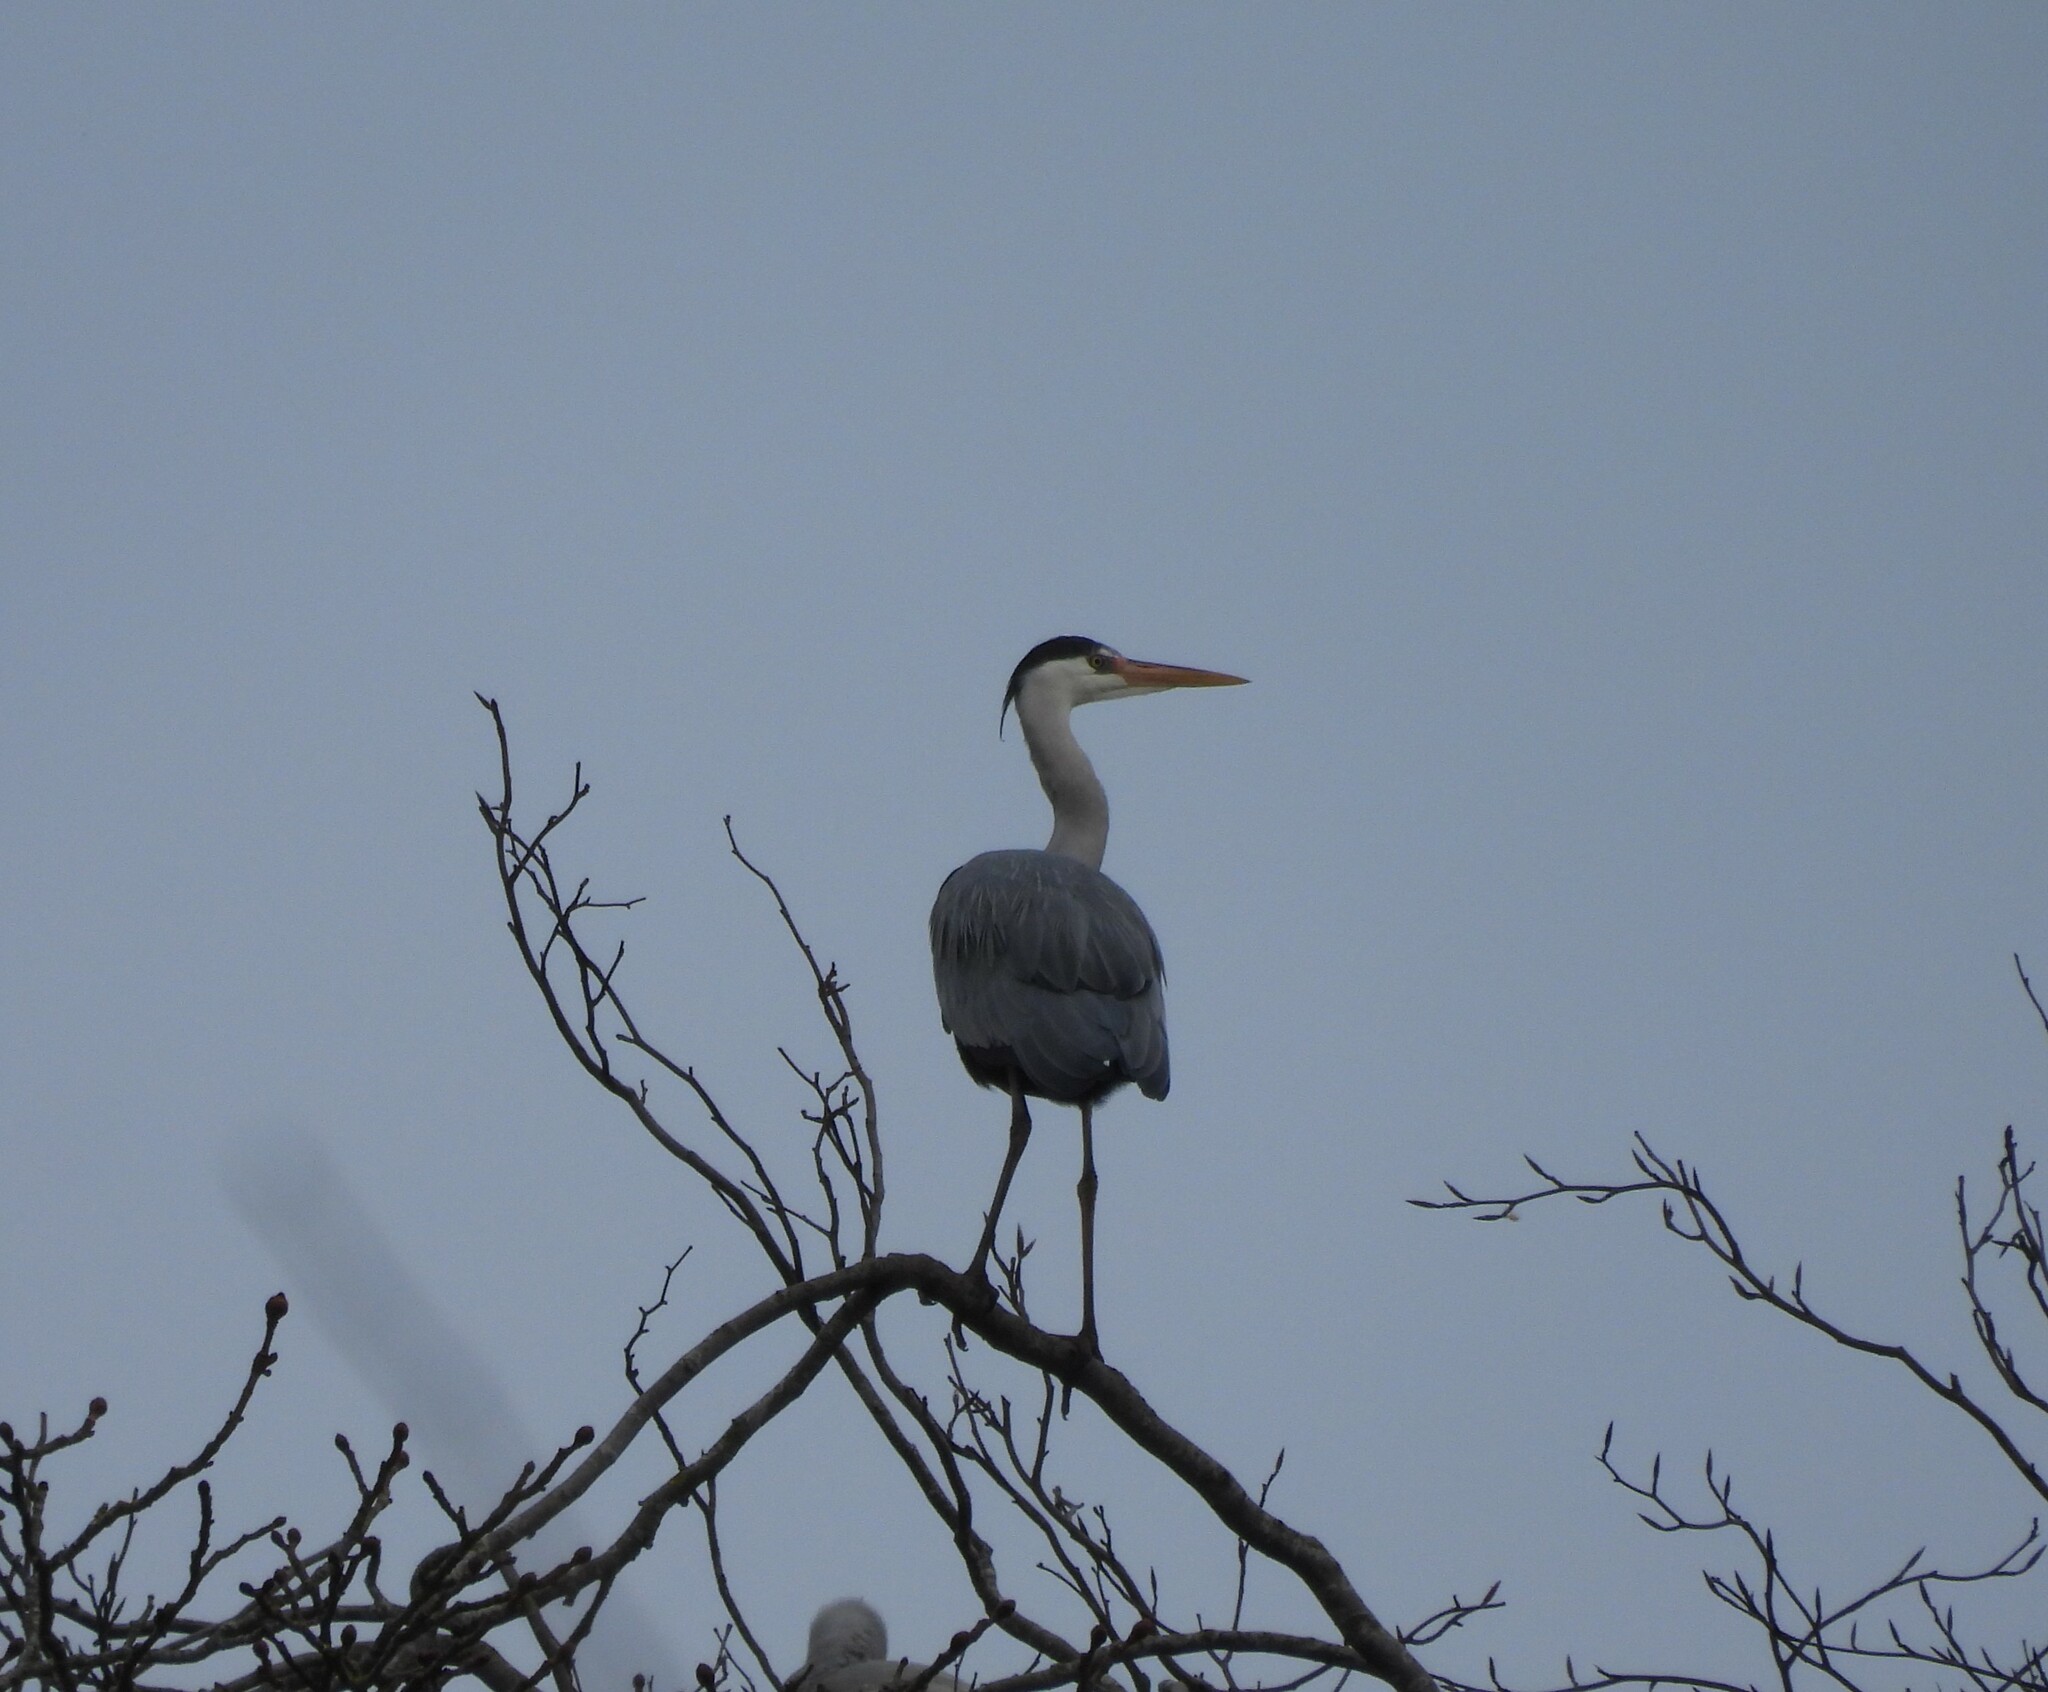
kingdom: Animalia
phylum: Chordata
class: Aves
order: Pelecaniformes
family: Ardeidae
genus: Ardea
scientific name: Ardea cinerea
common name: Grey heron
